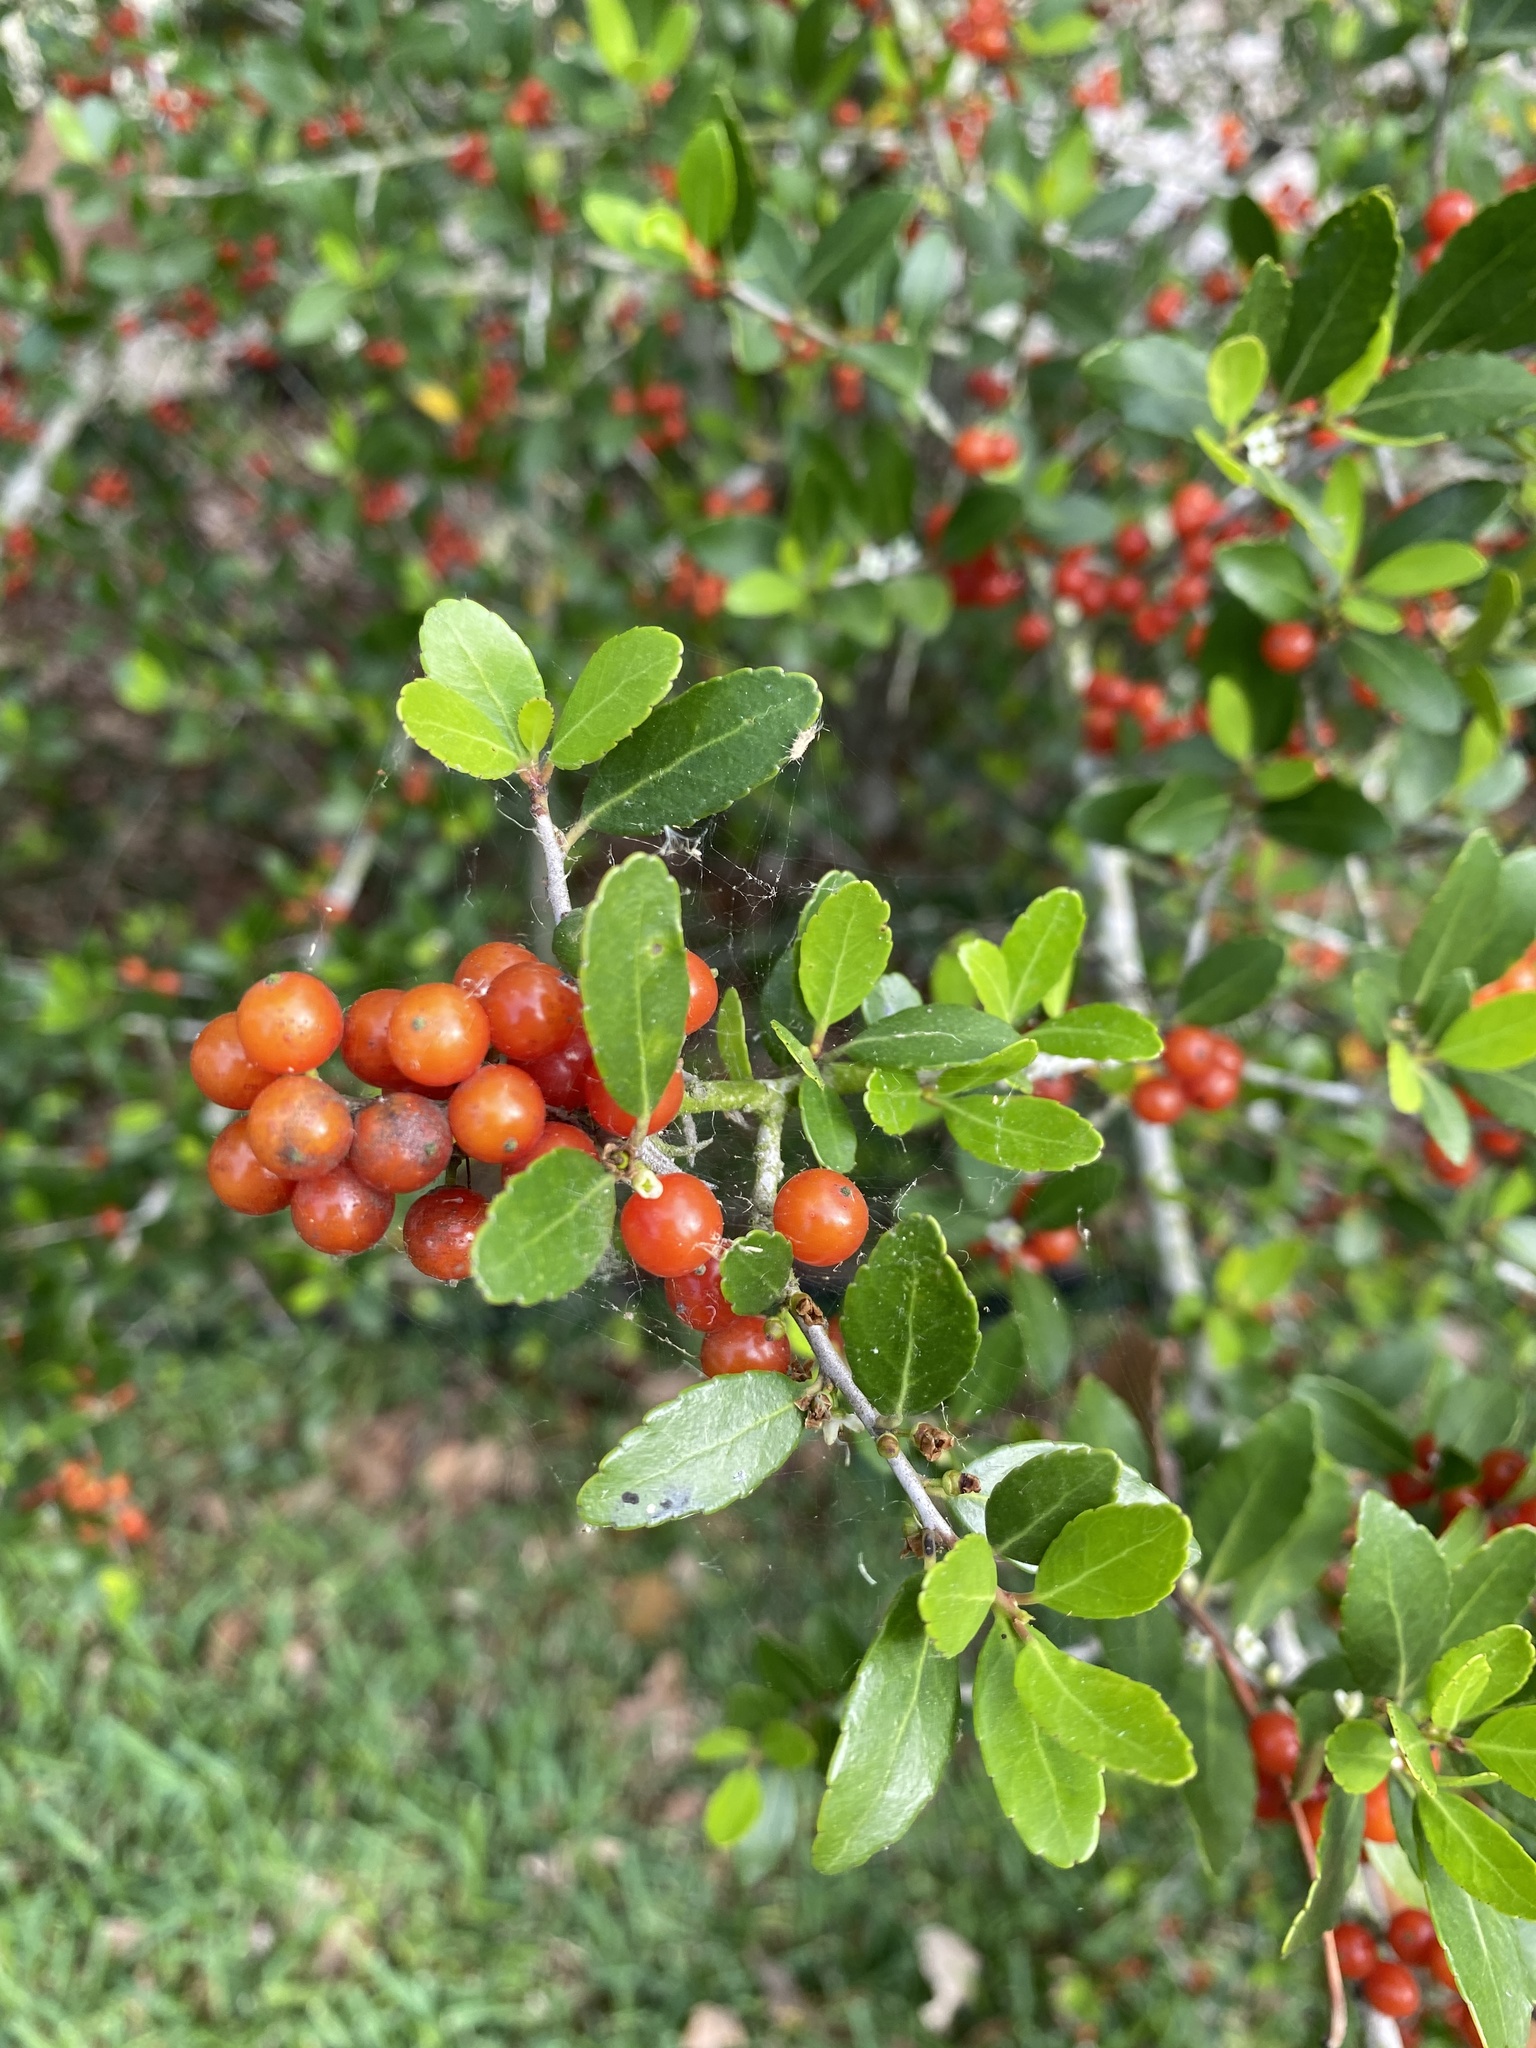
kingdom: Plantae
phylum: Tracheophyta
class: Magnoliopsida
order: Aquifoliales
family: Aquifoliaceae
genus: Ilex
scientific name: Ilex vomitoria
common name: Yaupon holly
